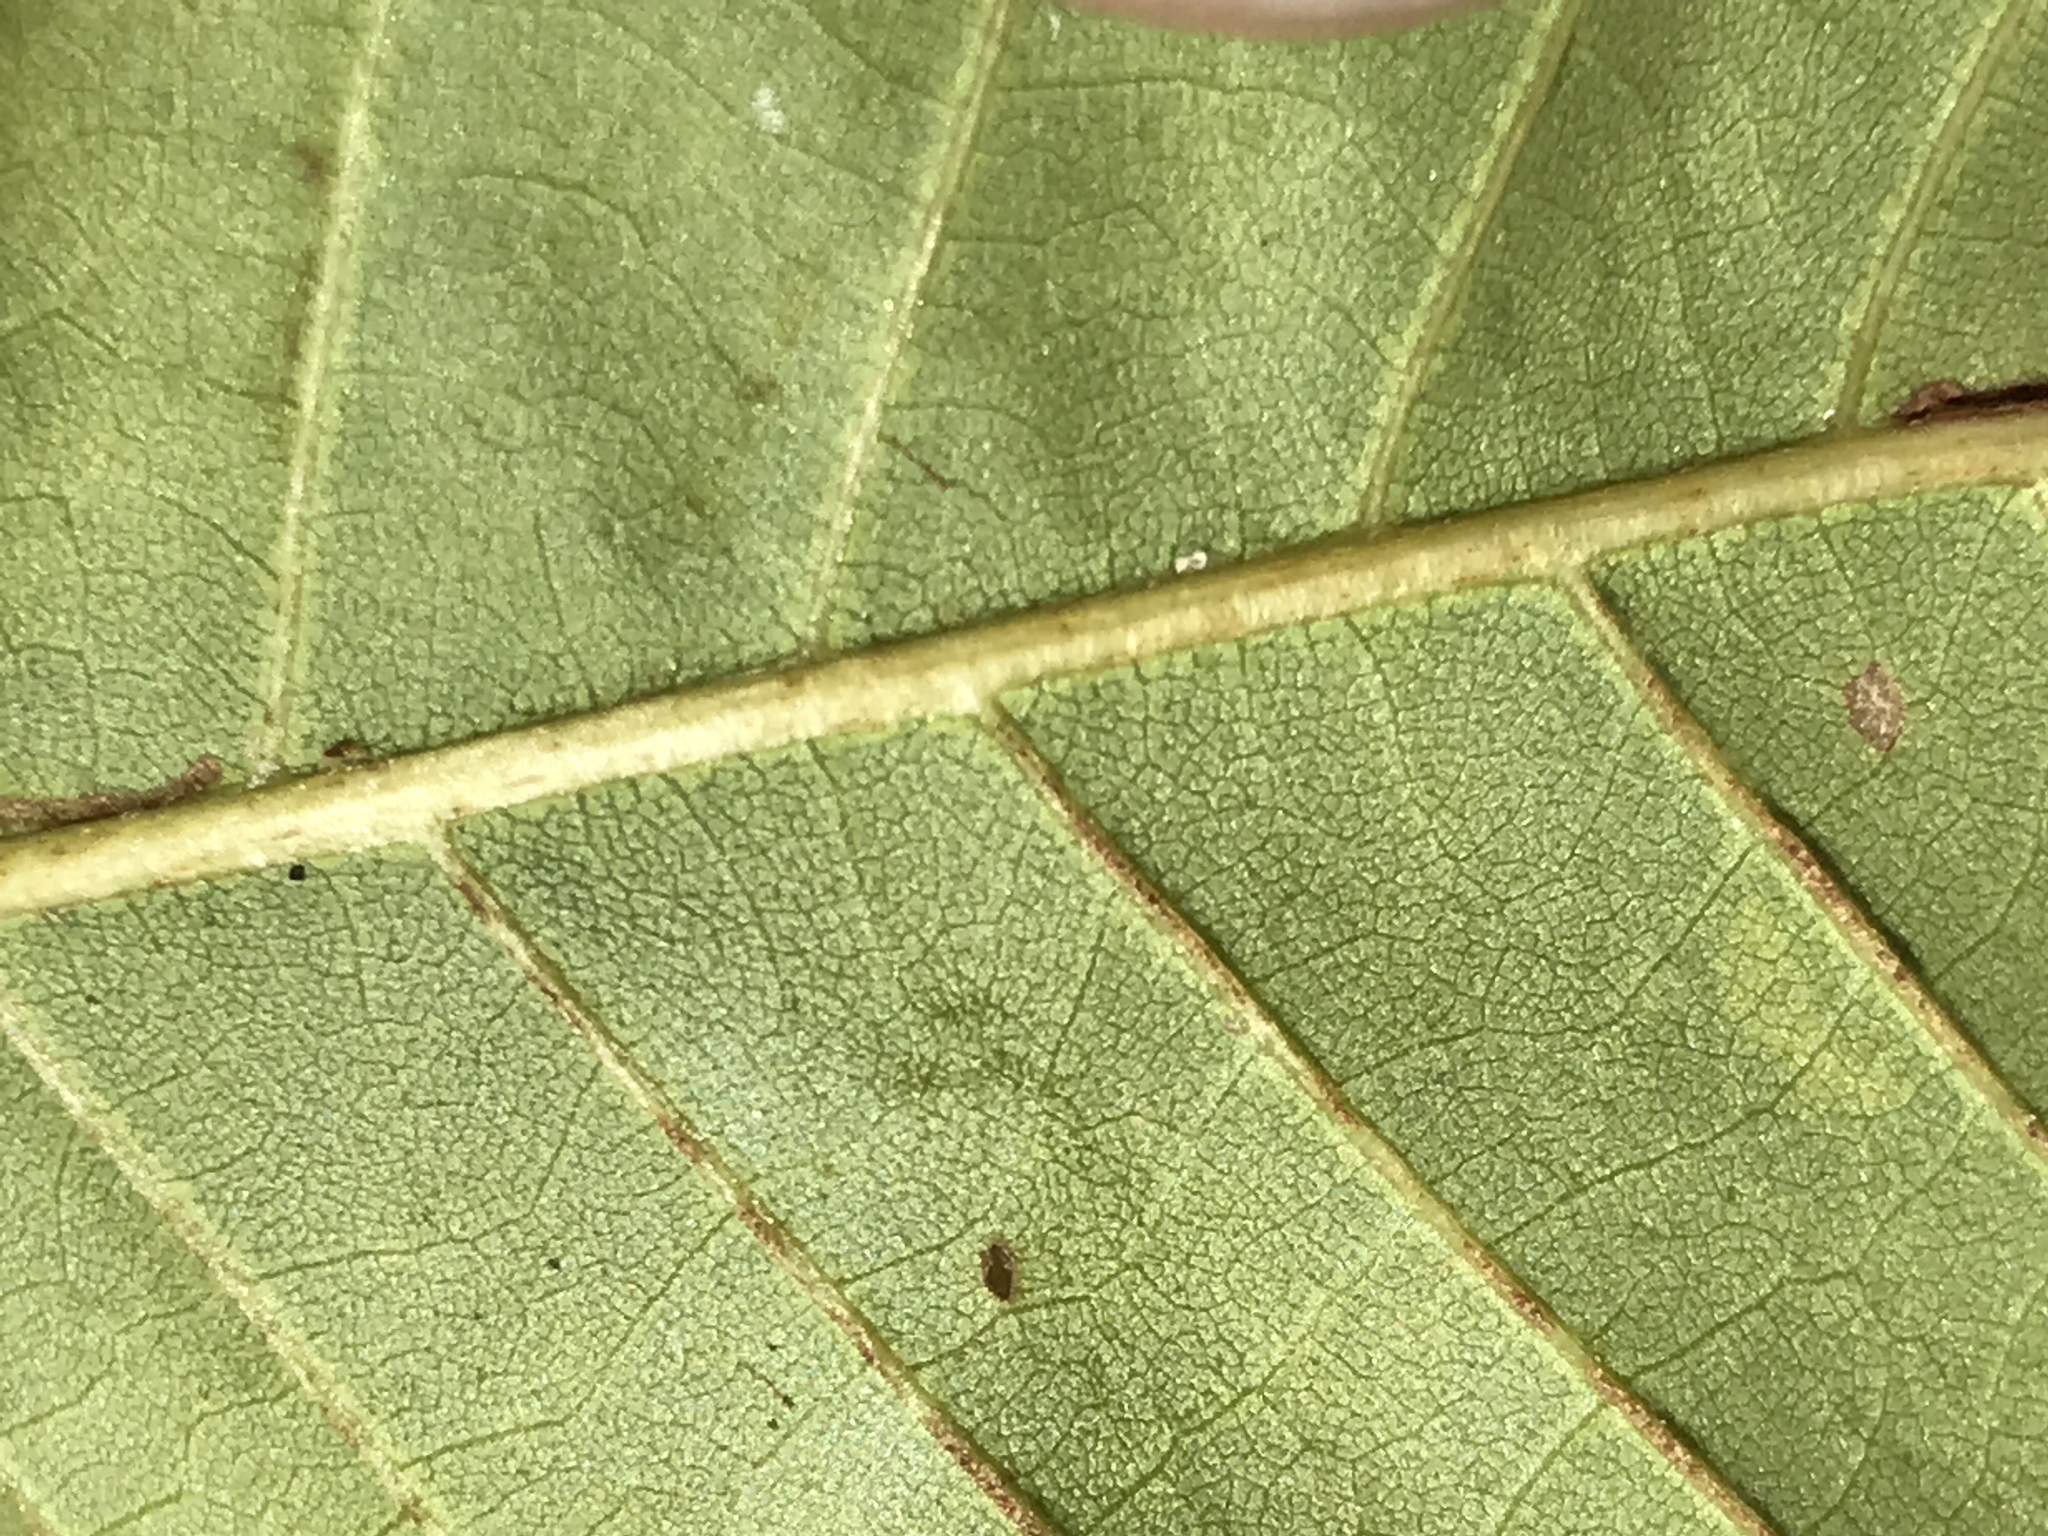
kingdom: Plantae
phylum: Tracheophyta
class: Magnoliopsida
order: Fagales
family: Fagaceae
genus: Castanea
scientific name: Castanea dentata
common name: American chestnut
